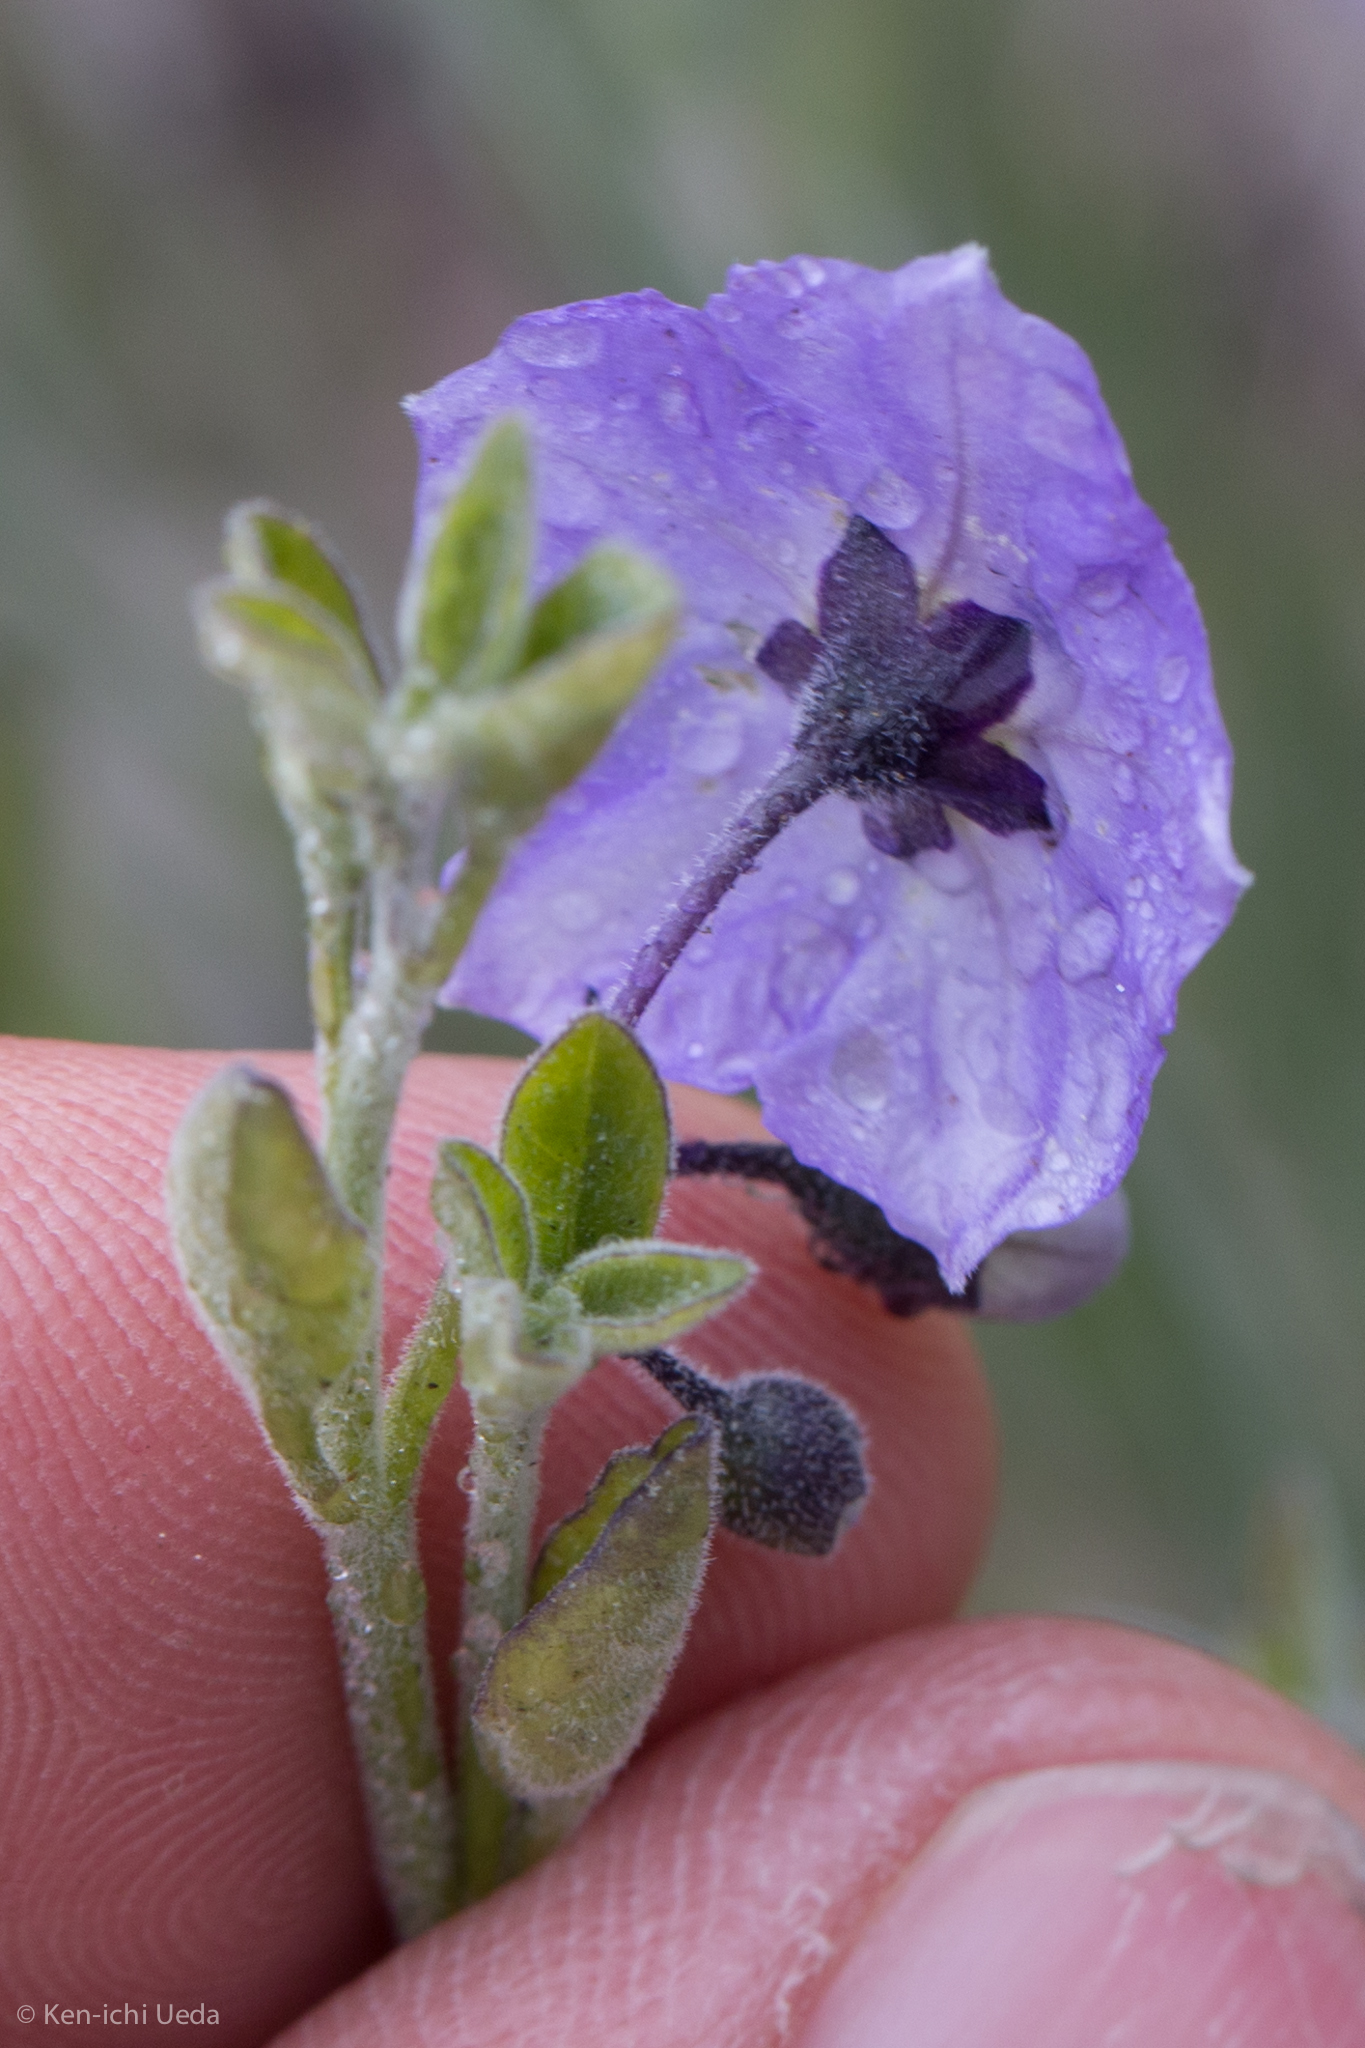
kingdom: Plantae
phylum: Tracheophyta
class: Magnoliopsida
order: Solanales
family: Solanaceae
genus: Solanum
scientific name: Solanum umbelliferum
